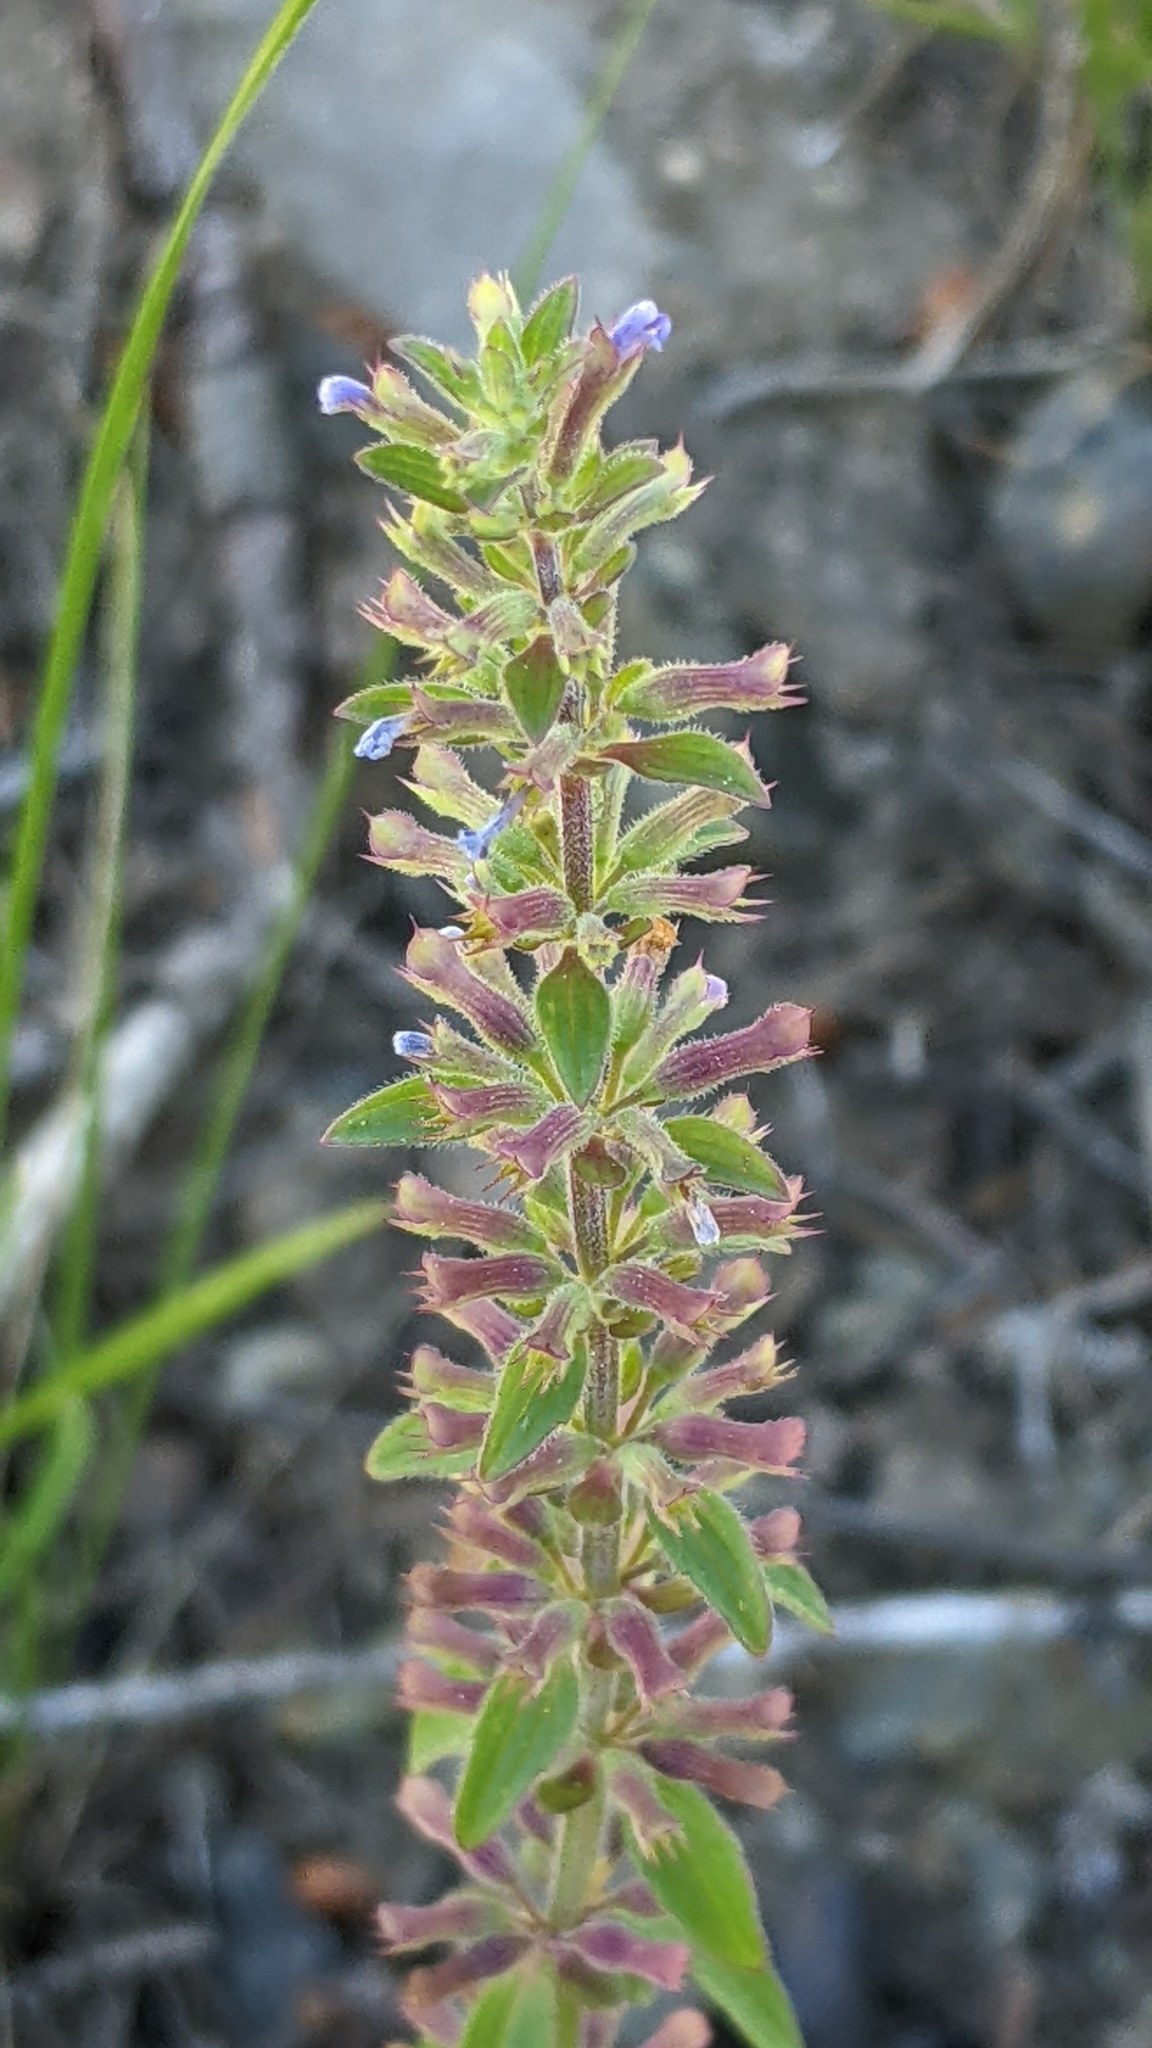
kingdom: Plantae
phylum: Tracheophyta
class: Magnoliopsida
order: Lamiales
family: Lamiaceae
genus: Dracocephalum
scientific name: Dracocephalum thymiflorum
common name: Thymeleaf dragonhead
